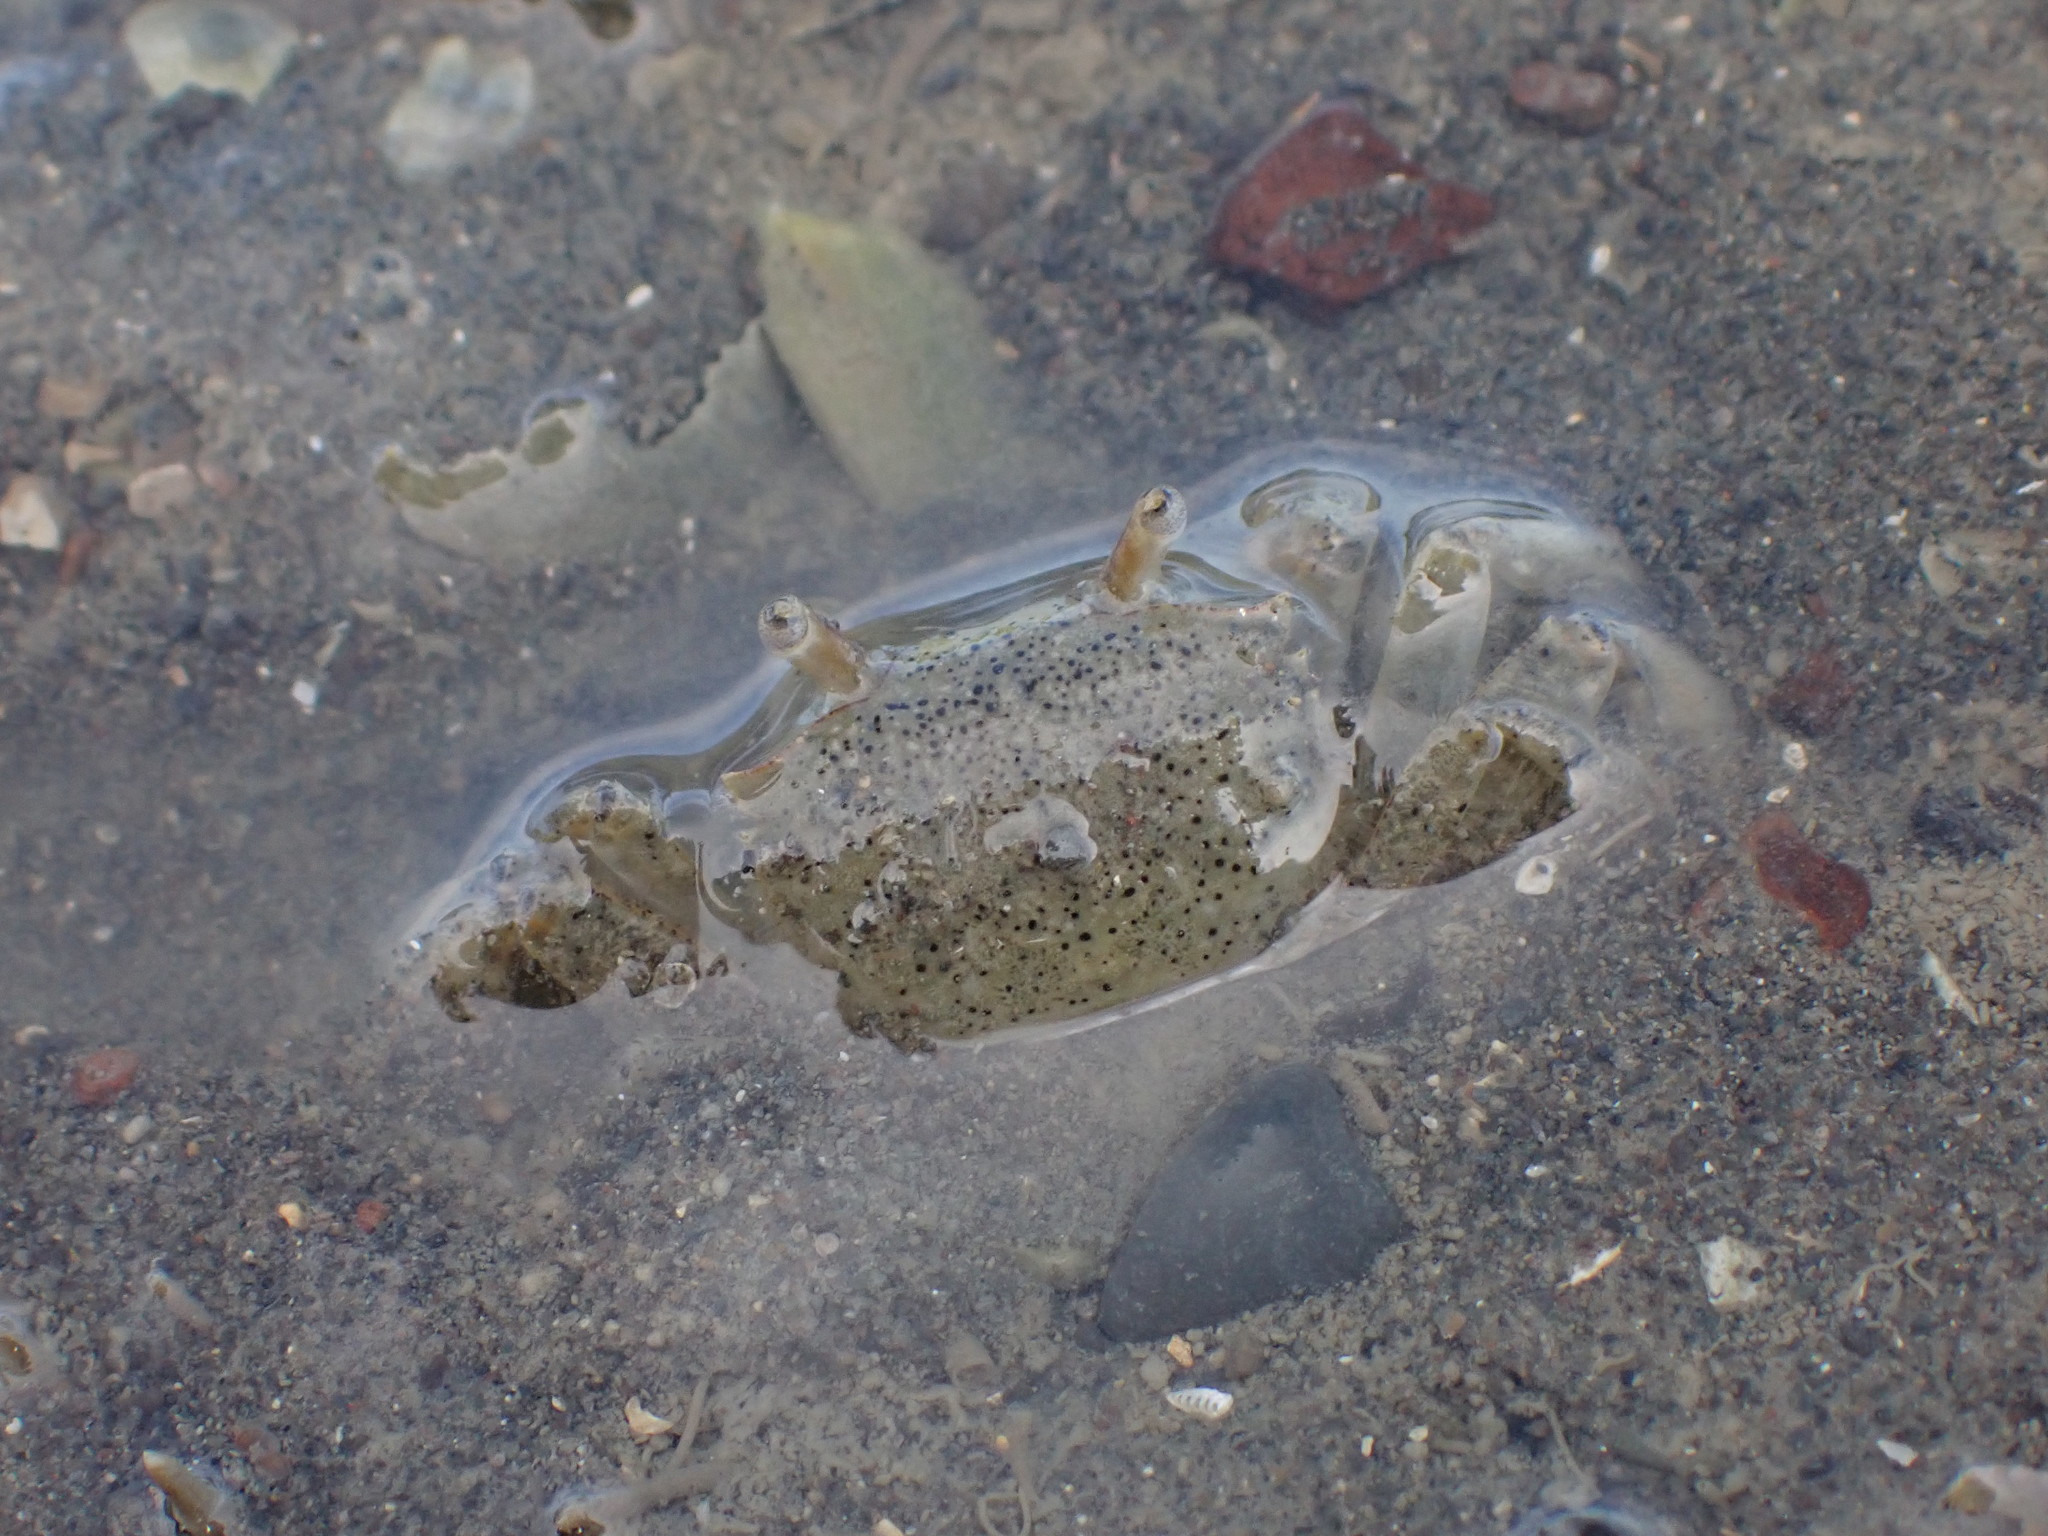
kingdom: Animalia
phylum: Arthropoda
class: Malacostraca
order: Decapoda
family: Varunidae
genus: Austrohelice
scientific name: Austrohelice crassa
